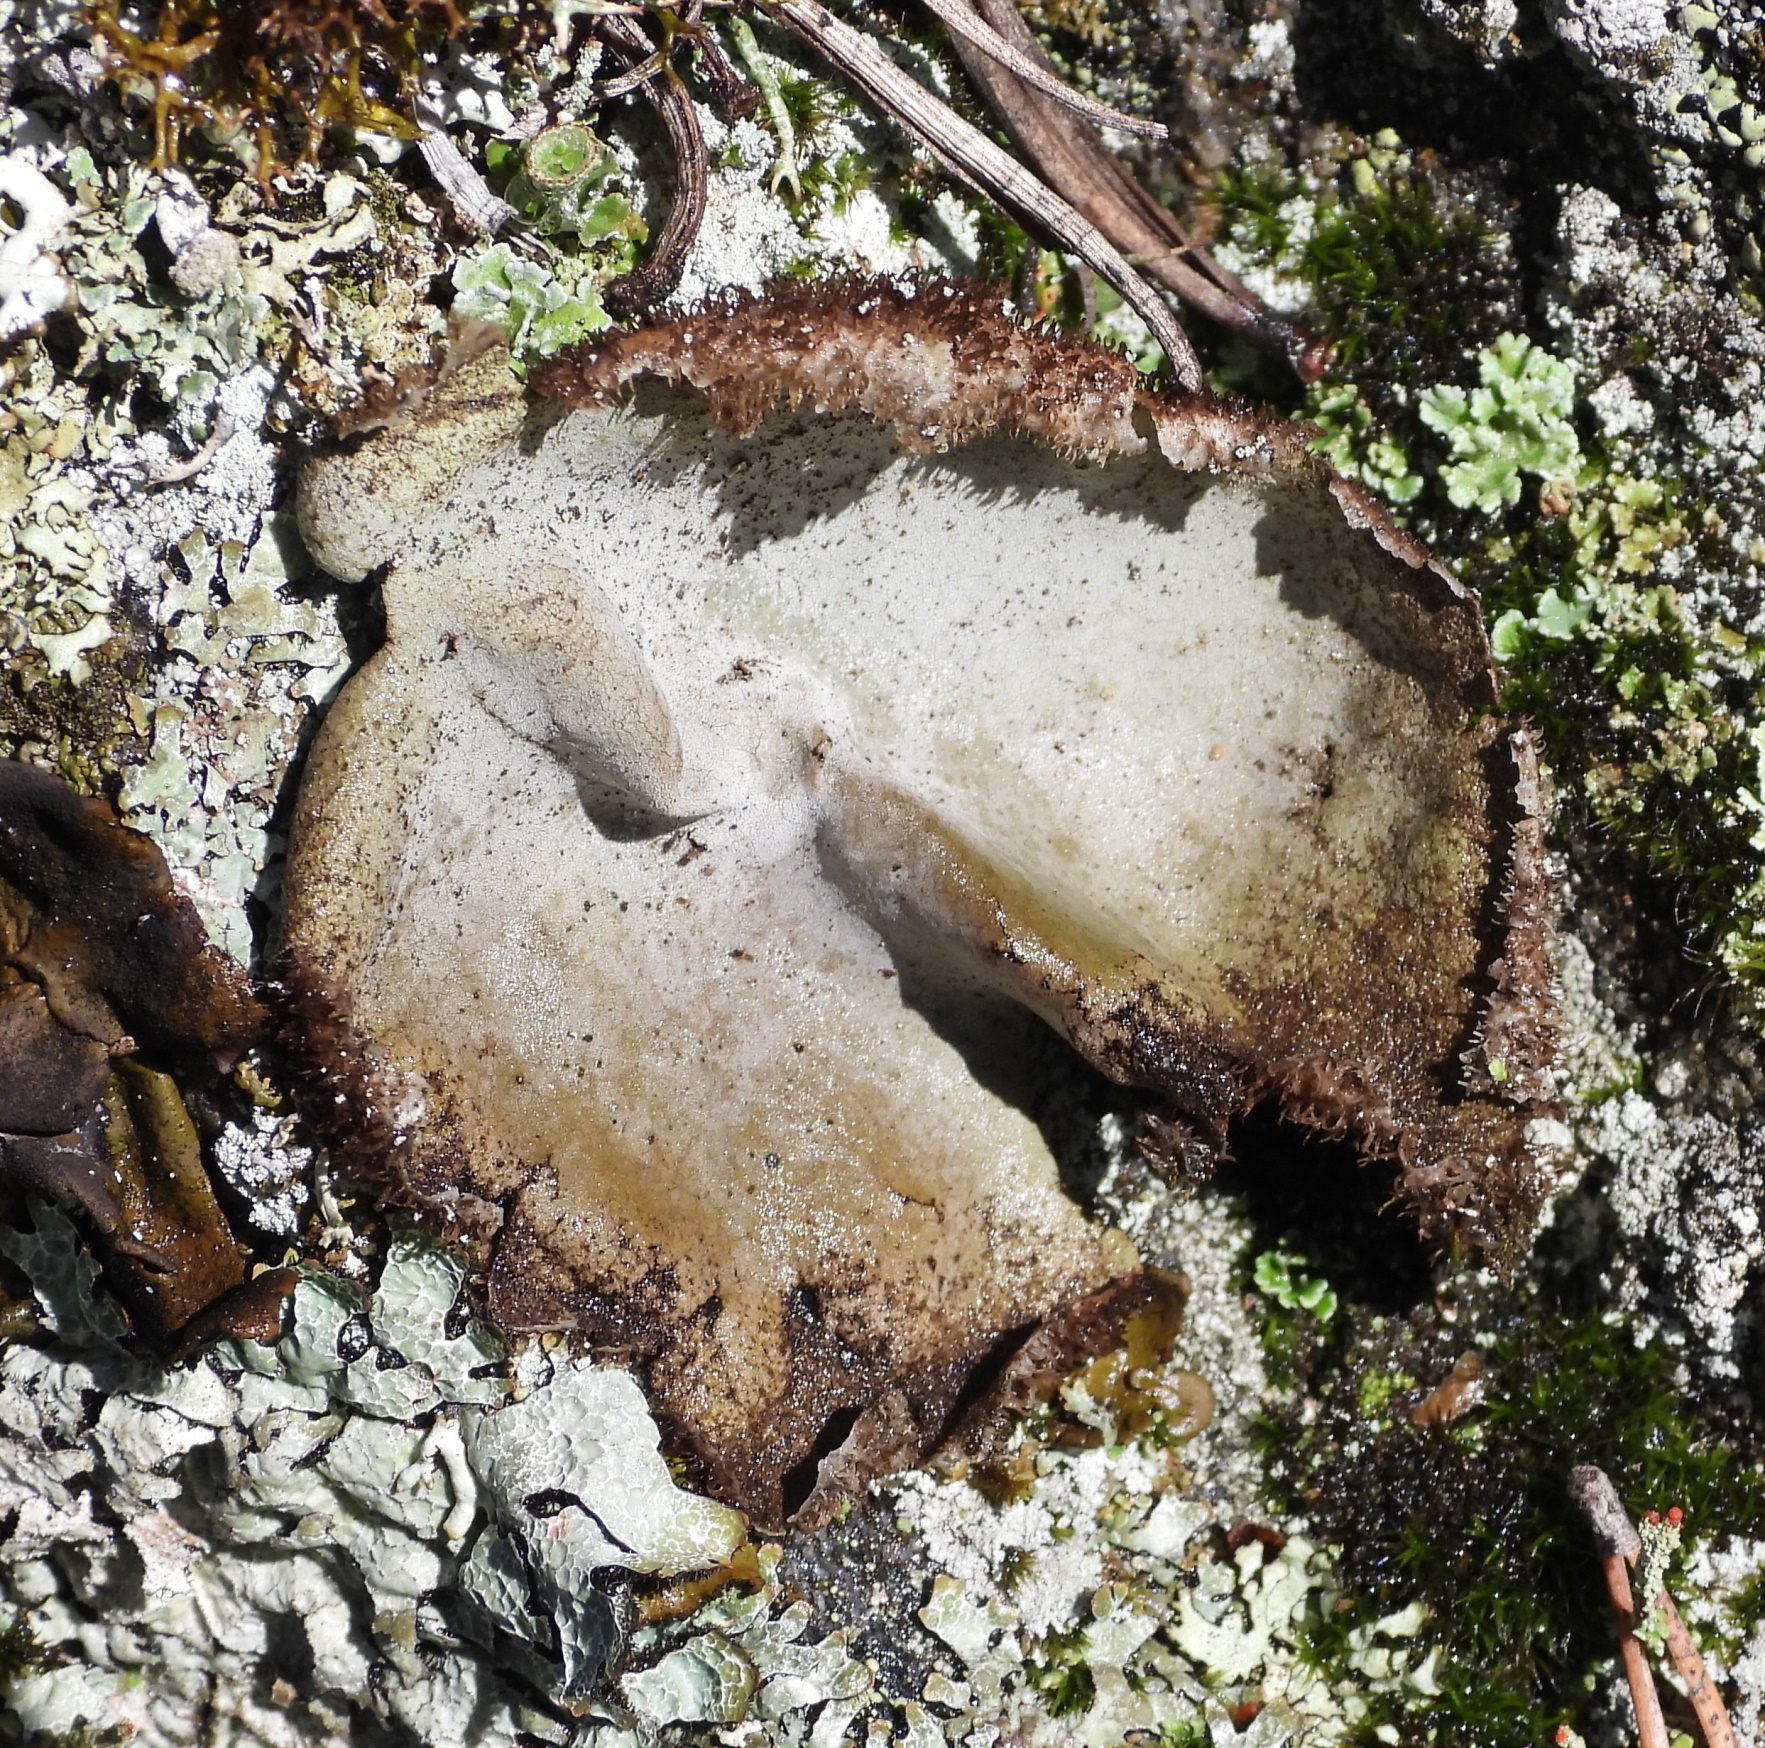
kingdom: Fungi
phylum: Ascomycota
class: Lecanoromycetes
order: Umbilicariales
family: Umbilicariaceae
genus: Umbilicaria
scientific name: Umbilicaria hirsuta
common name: Granulating rocktripe lichen
